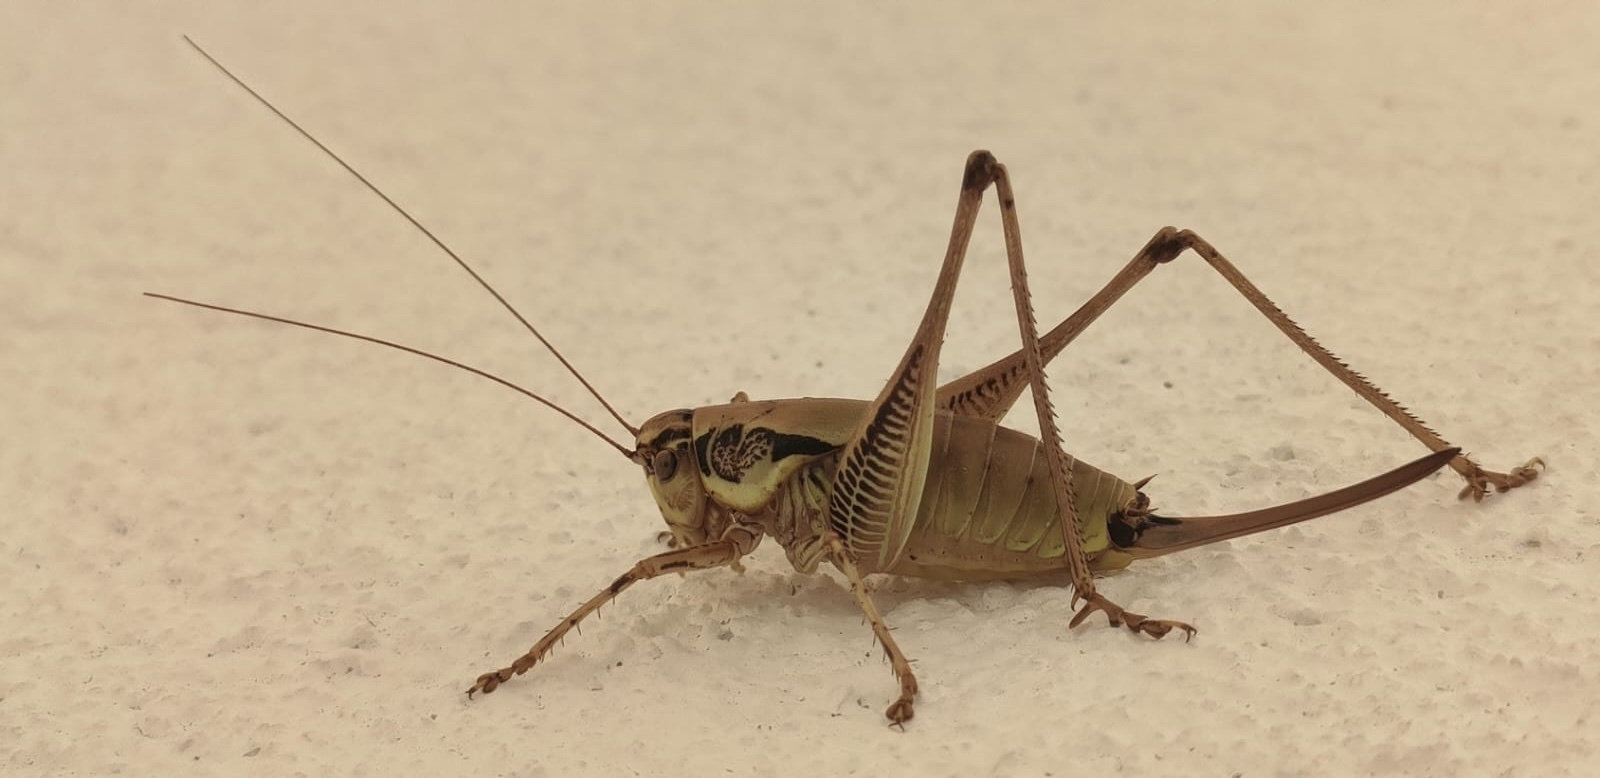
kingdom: Animalia
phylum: Arthropoda
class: Insecta
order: Orthoptera
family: Tettigoniidae
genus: Eupholidoptera
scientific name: Eupholidoptera cephalonica
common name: Ionian marbled bush-cricket
